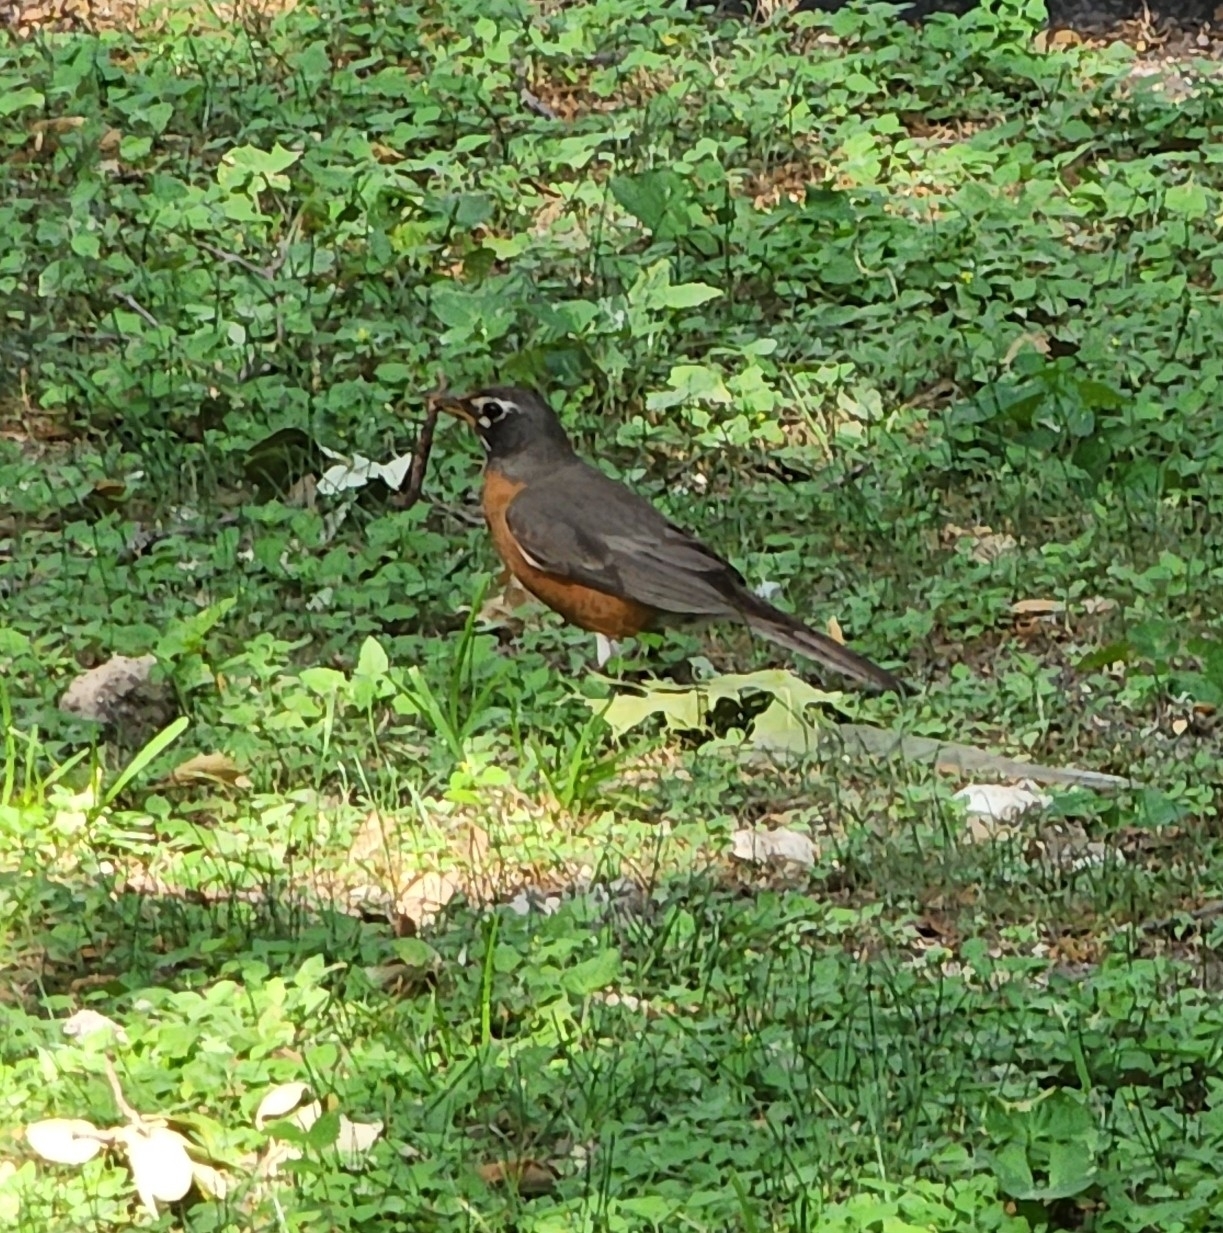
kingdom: Animalia
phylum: Chordata
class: Aves
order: Passeriformes
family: Turdidae
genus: Turdus
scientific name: Turdus migratorius
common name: American robin
